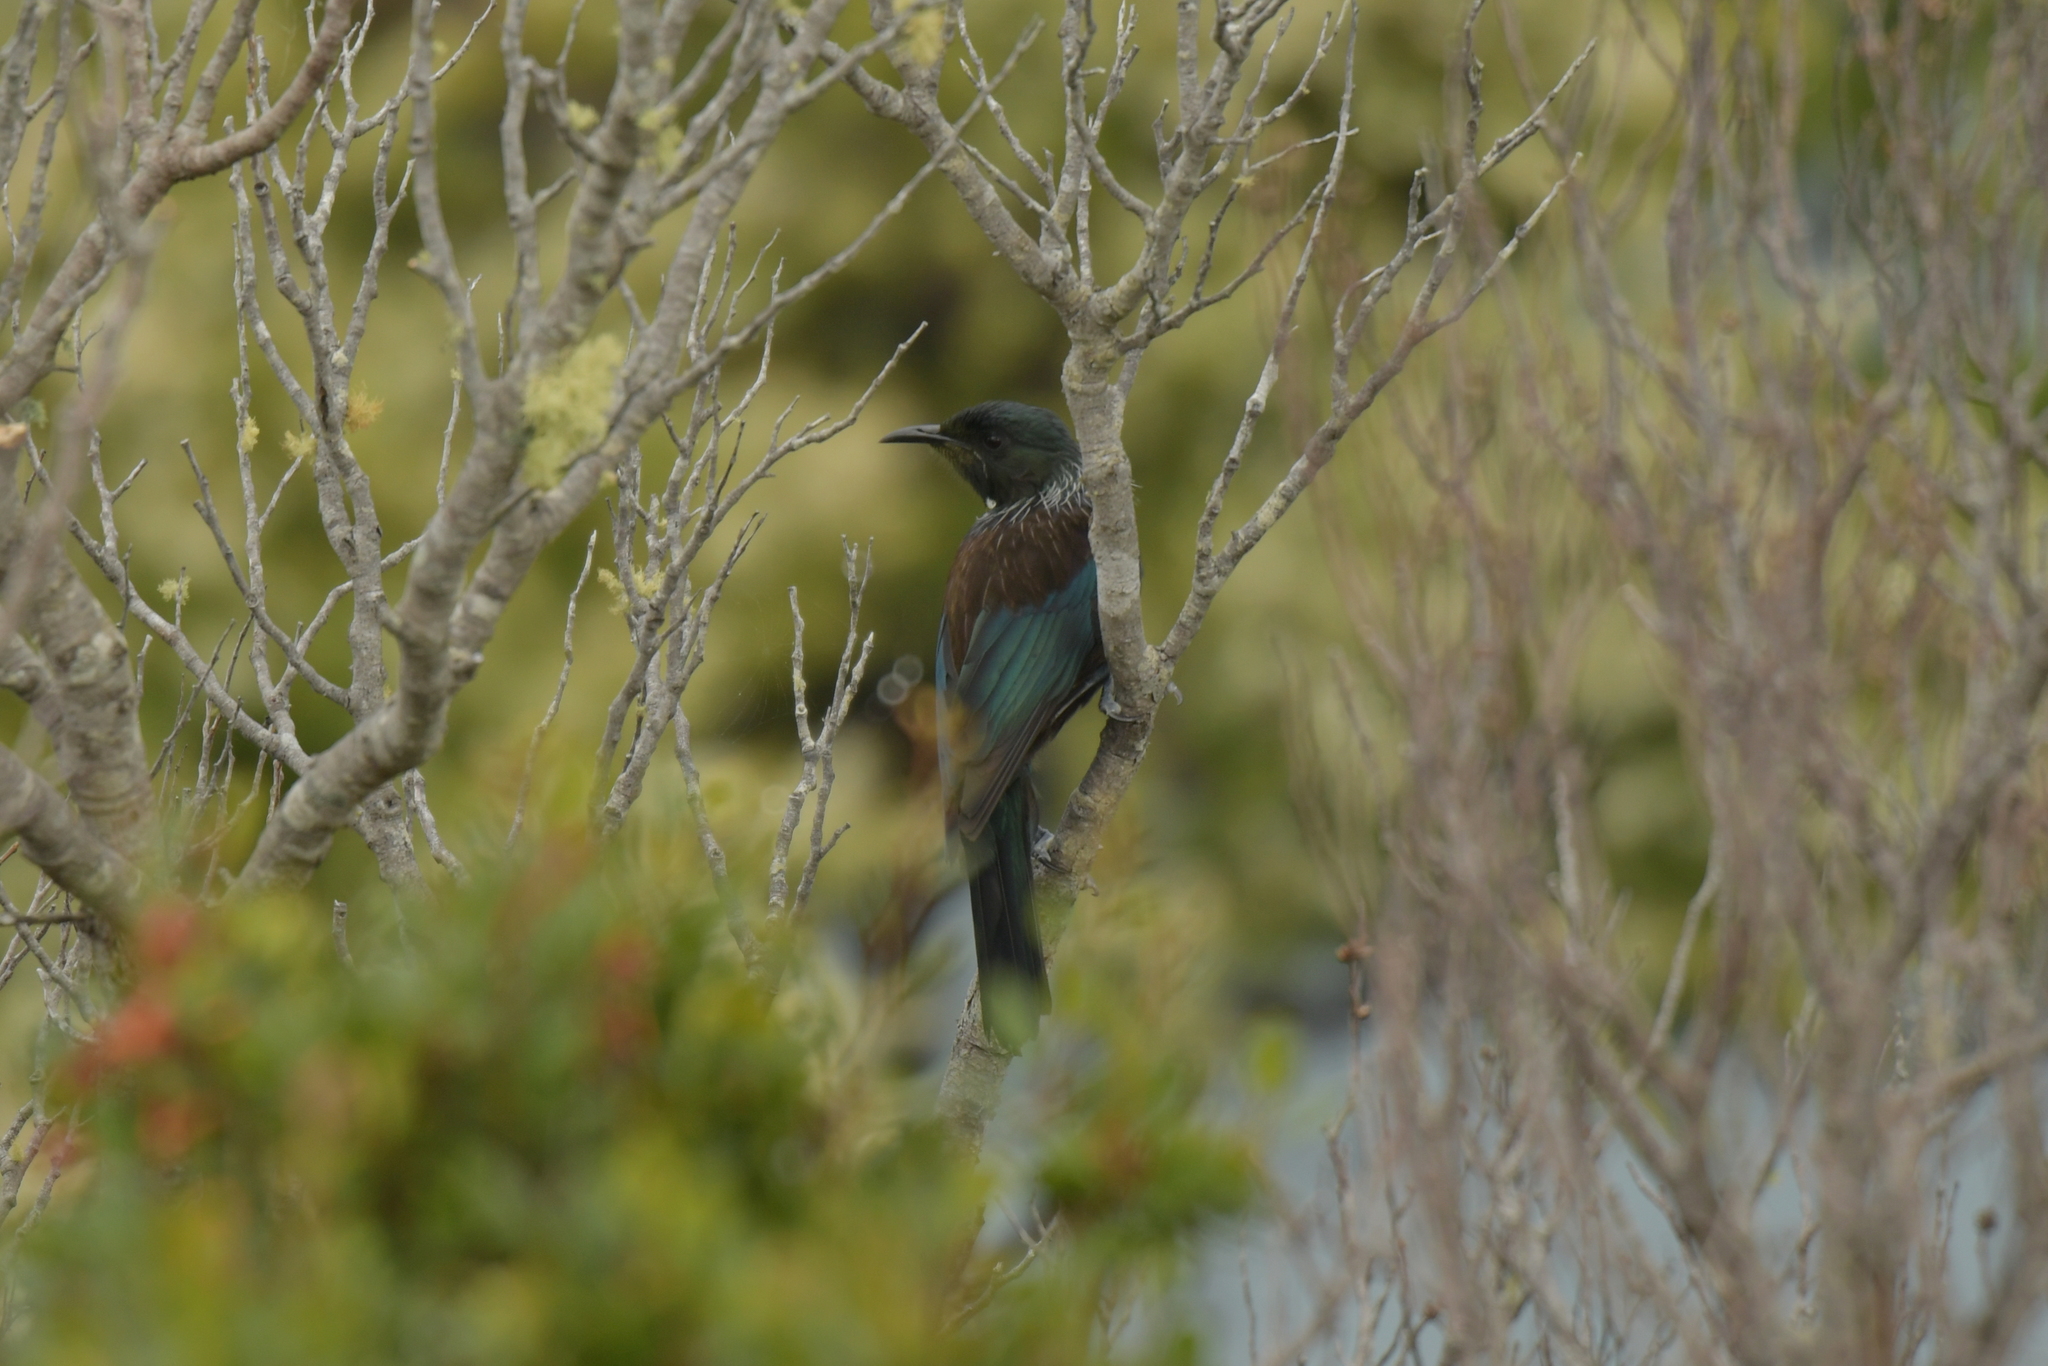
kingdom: Animalia
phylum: Chordata
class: Aves
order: Passeriformes
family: Meliphagidae
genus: Prosthemadera
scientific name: Prosthemadera novaeseelandiae
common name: Tui
